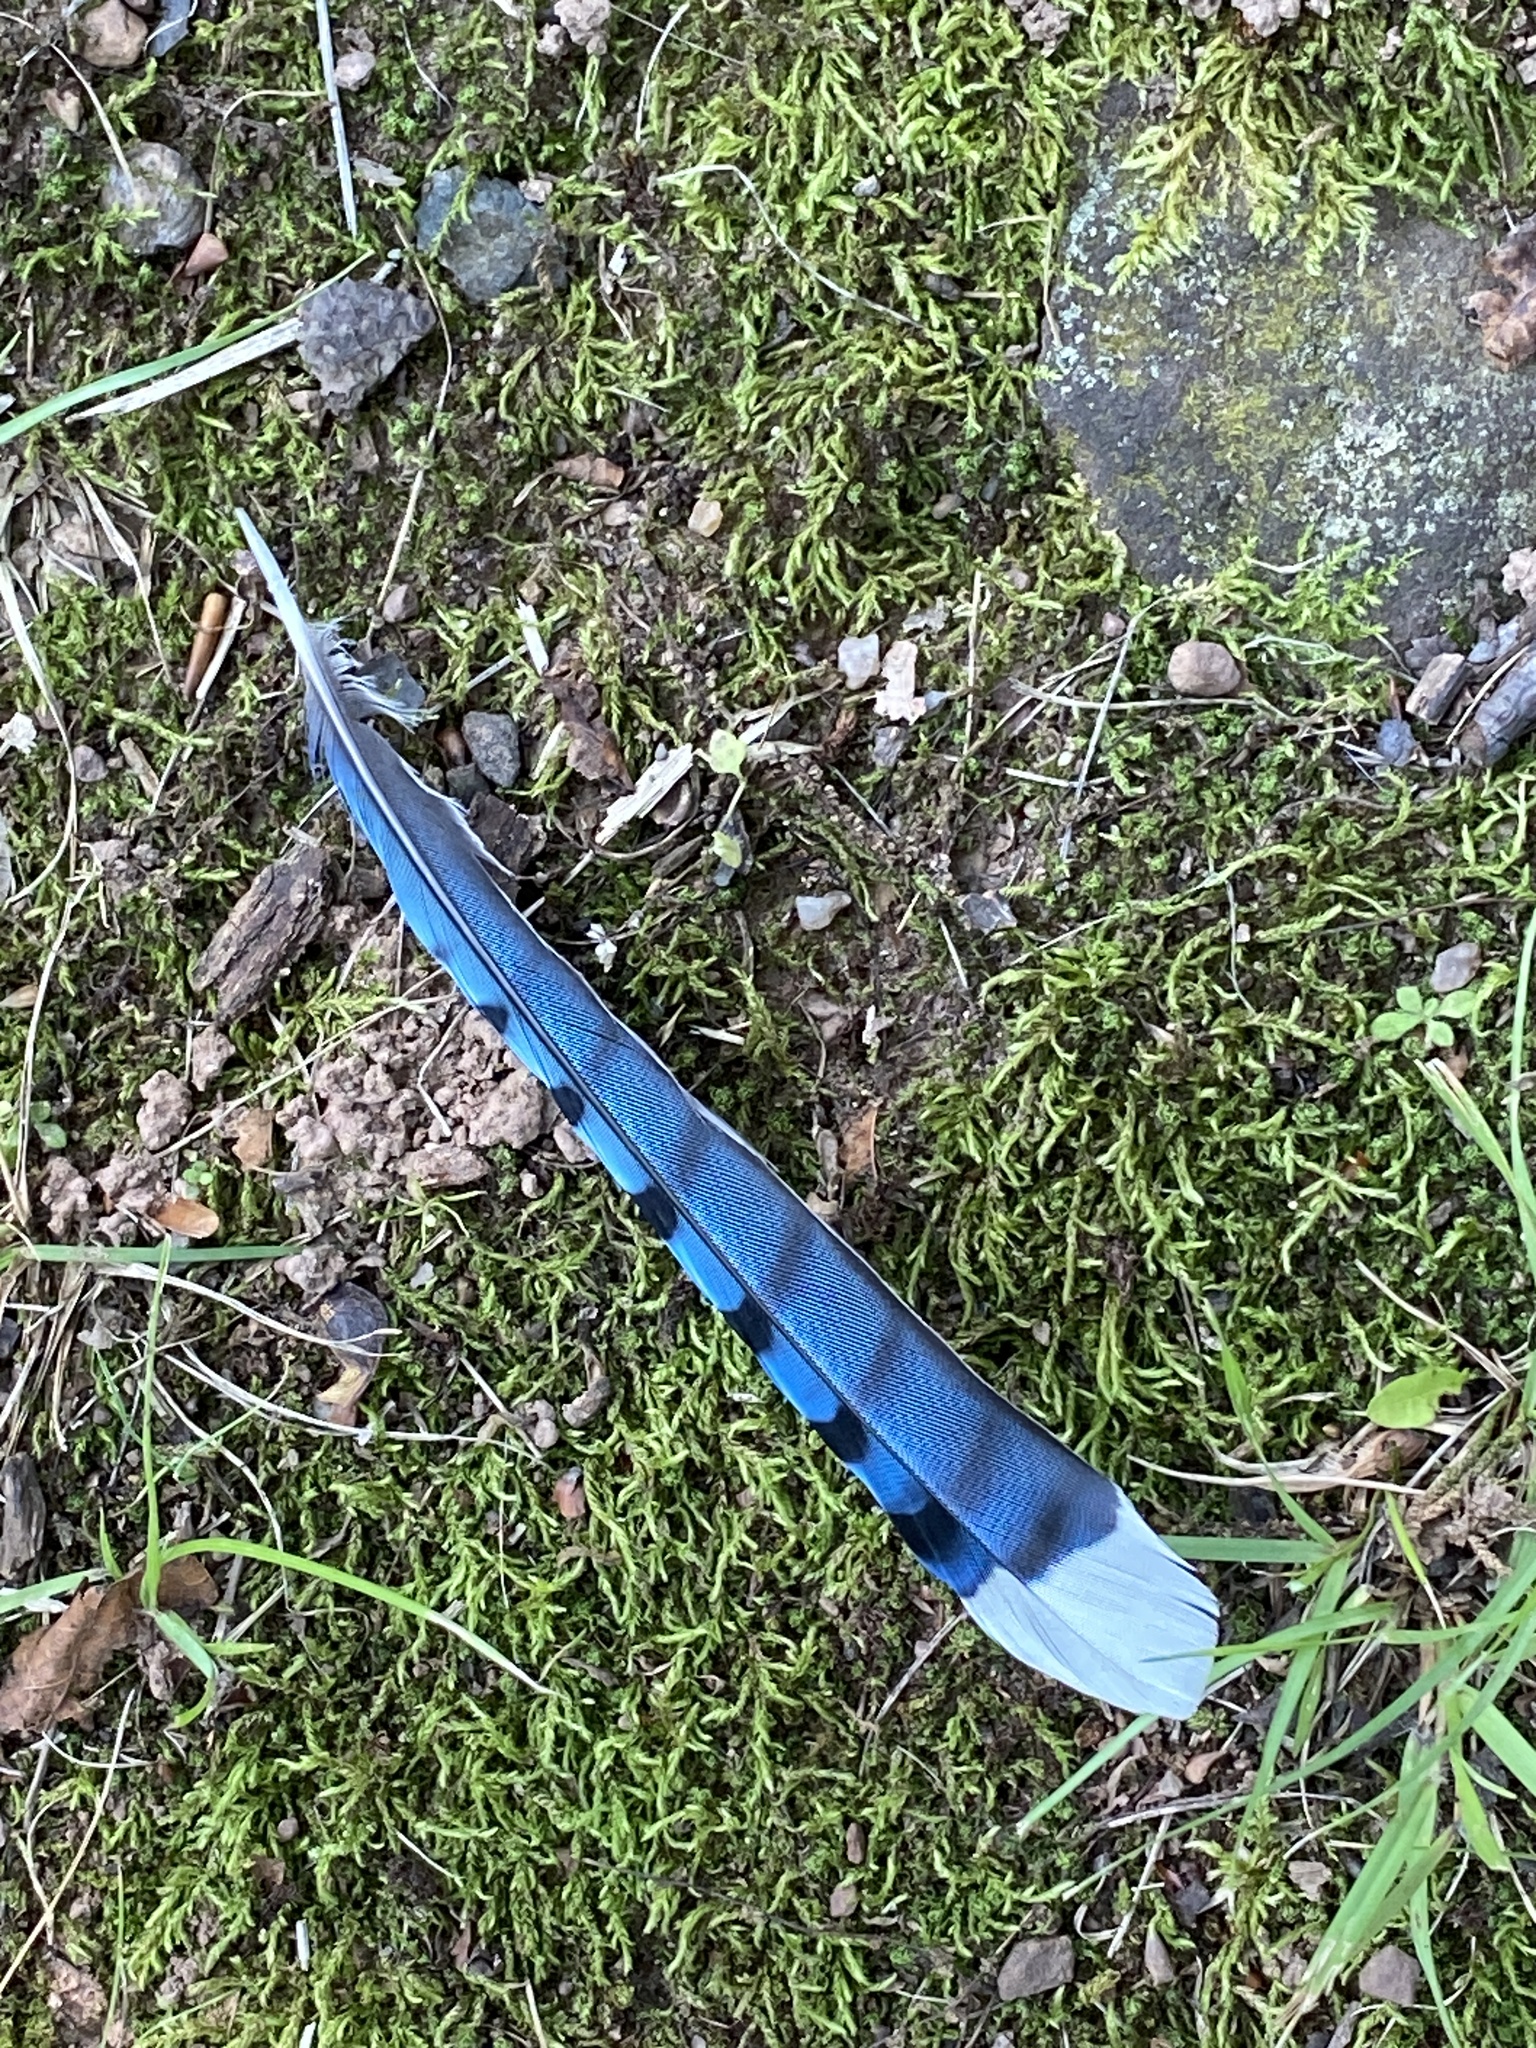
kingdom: Animalia
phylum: Chordata
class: Aves
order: Passeriformes
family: Corvidae
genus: Cyanocitta
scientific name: Cyanocitta cristata
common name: Blue jay
